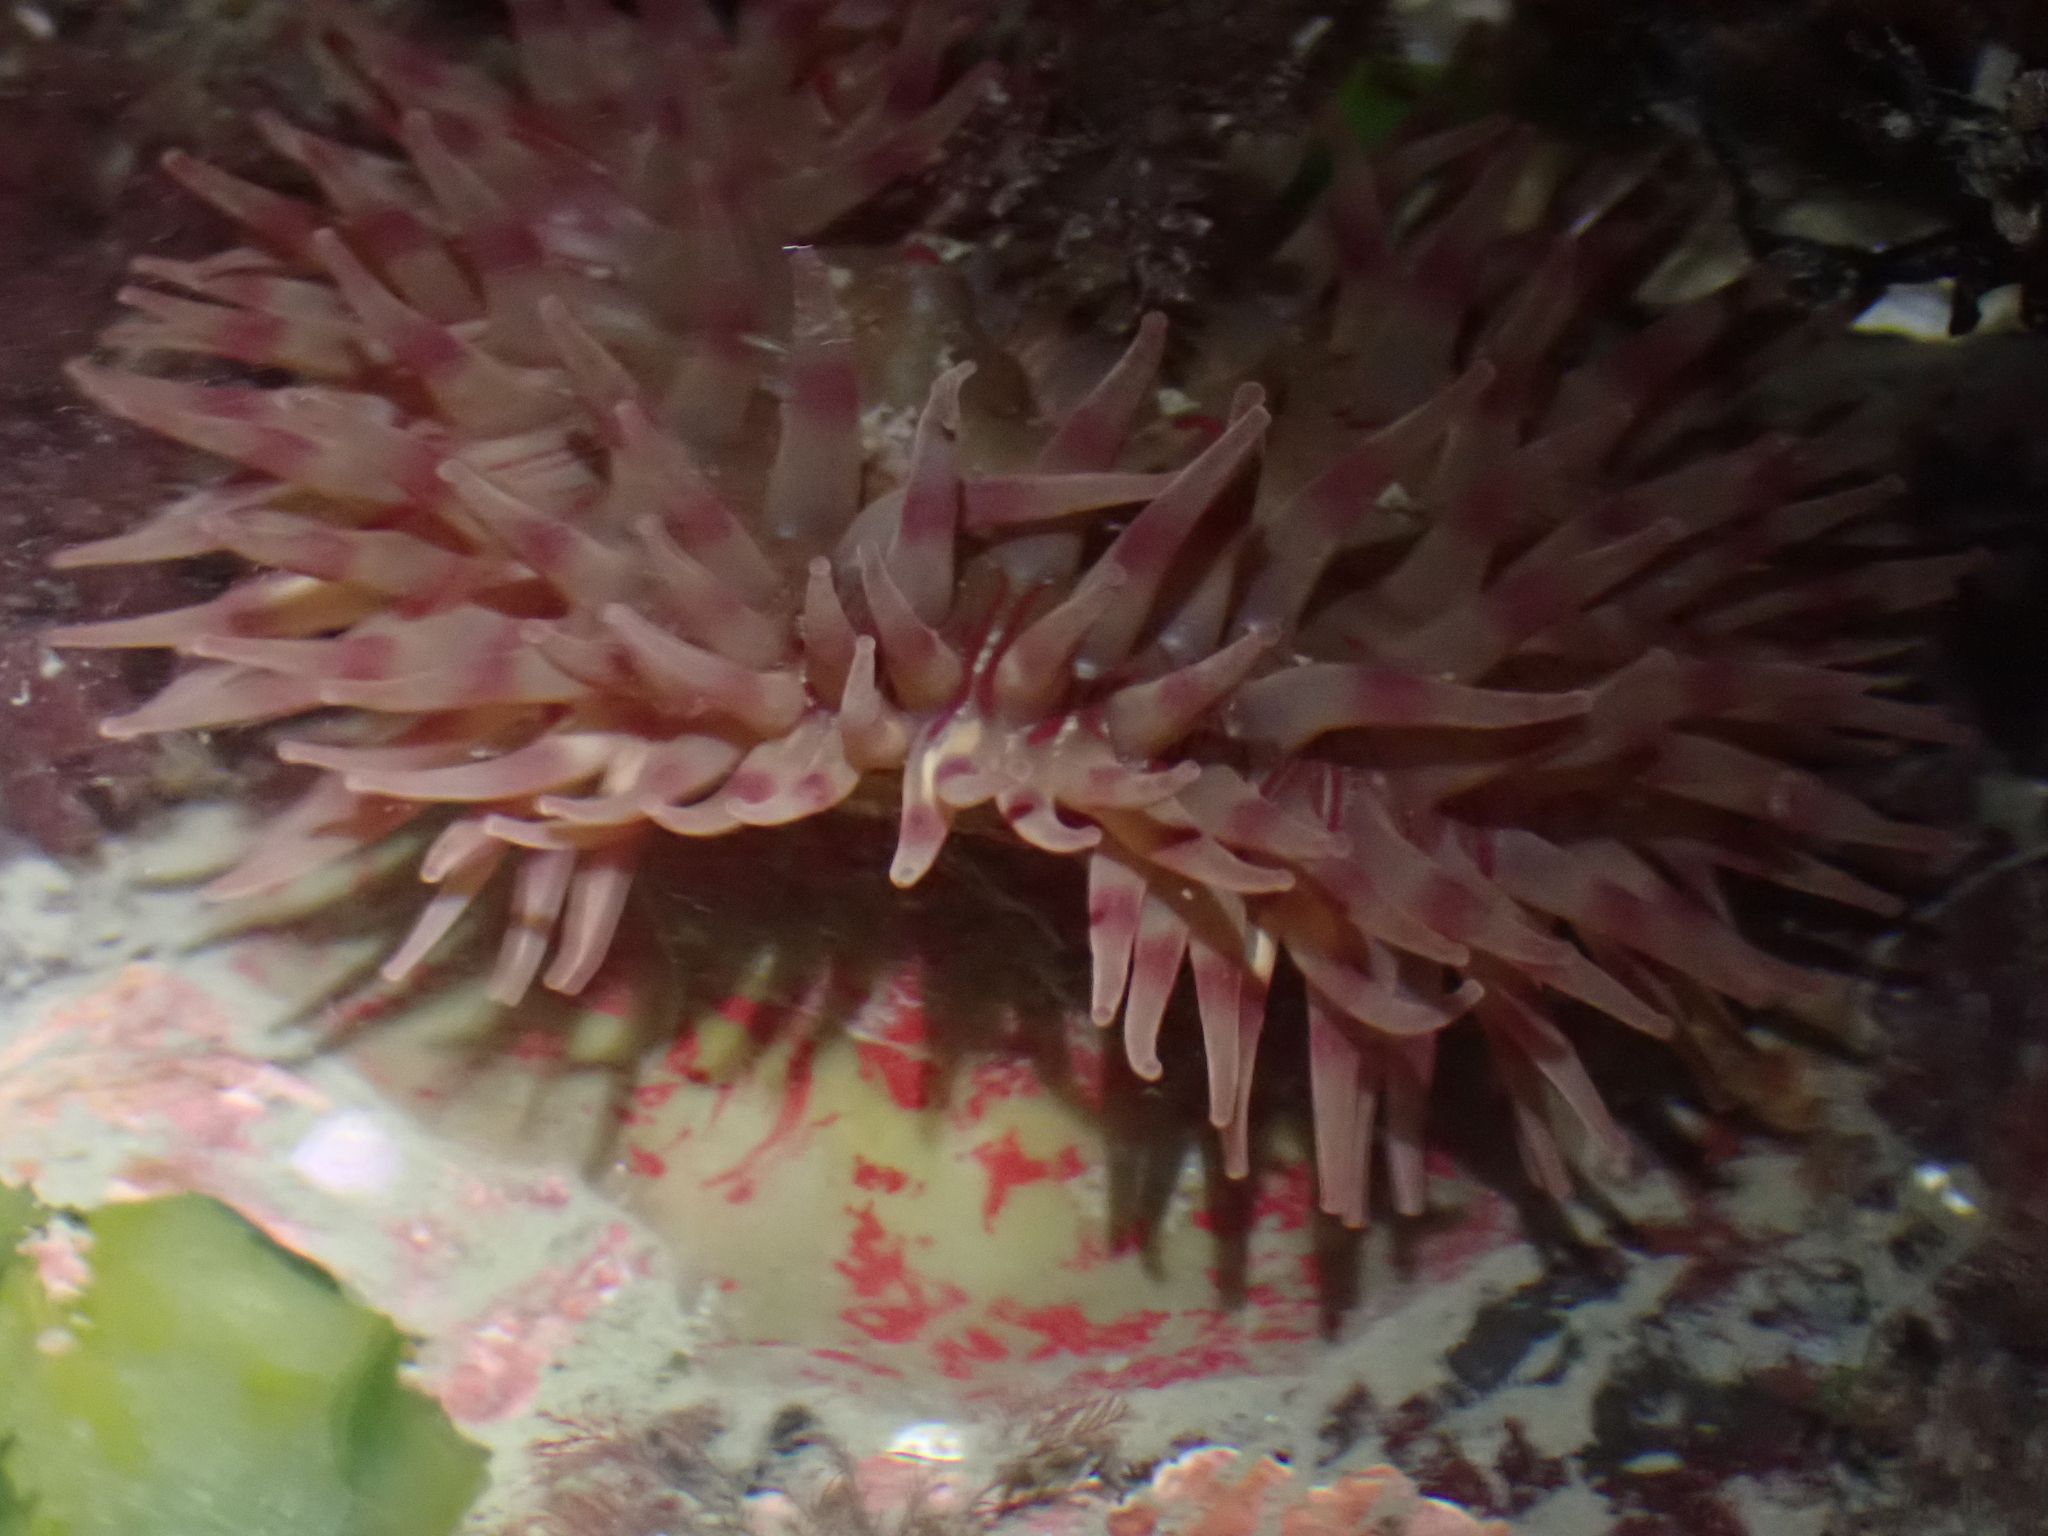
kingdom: Animalia
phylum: Cnidaria
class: Anthozoa
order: Actiniaria
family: Actiniidae
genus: Urticina
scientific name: Urticina grebelnyi
